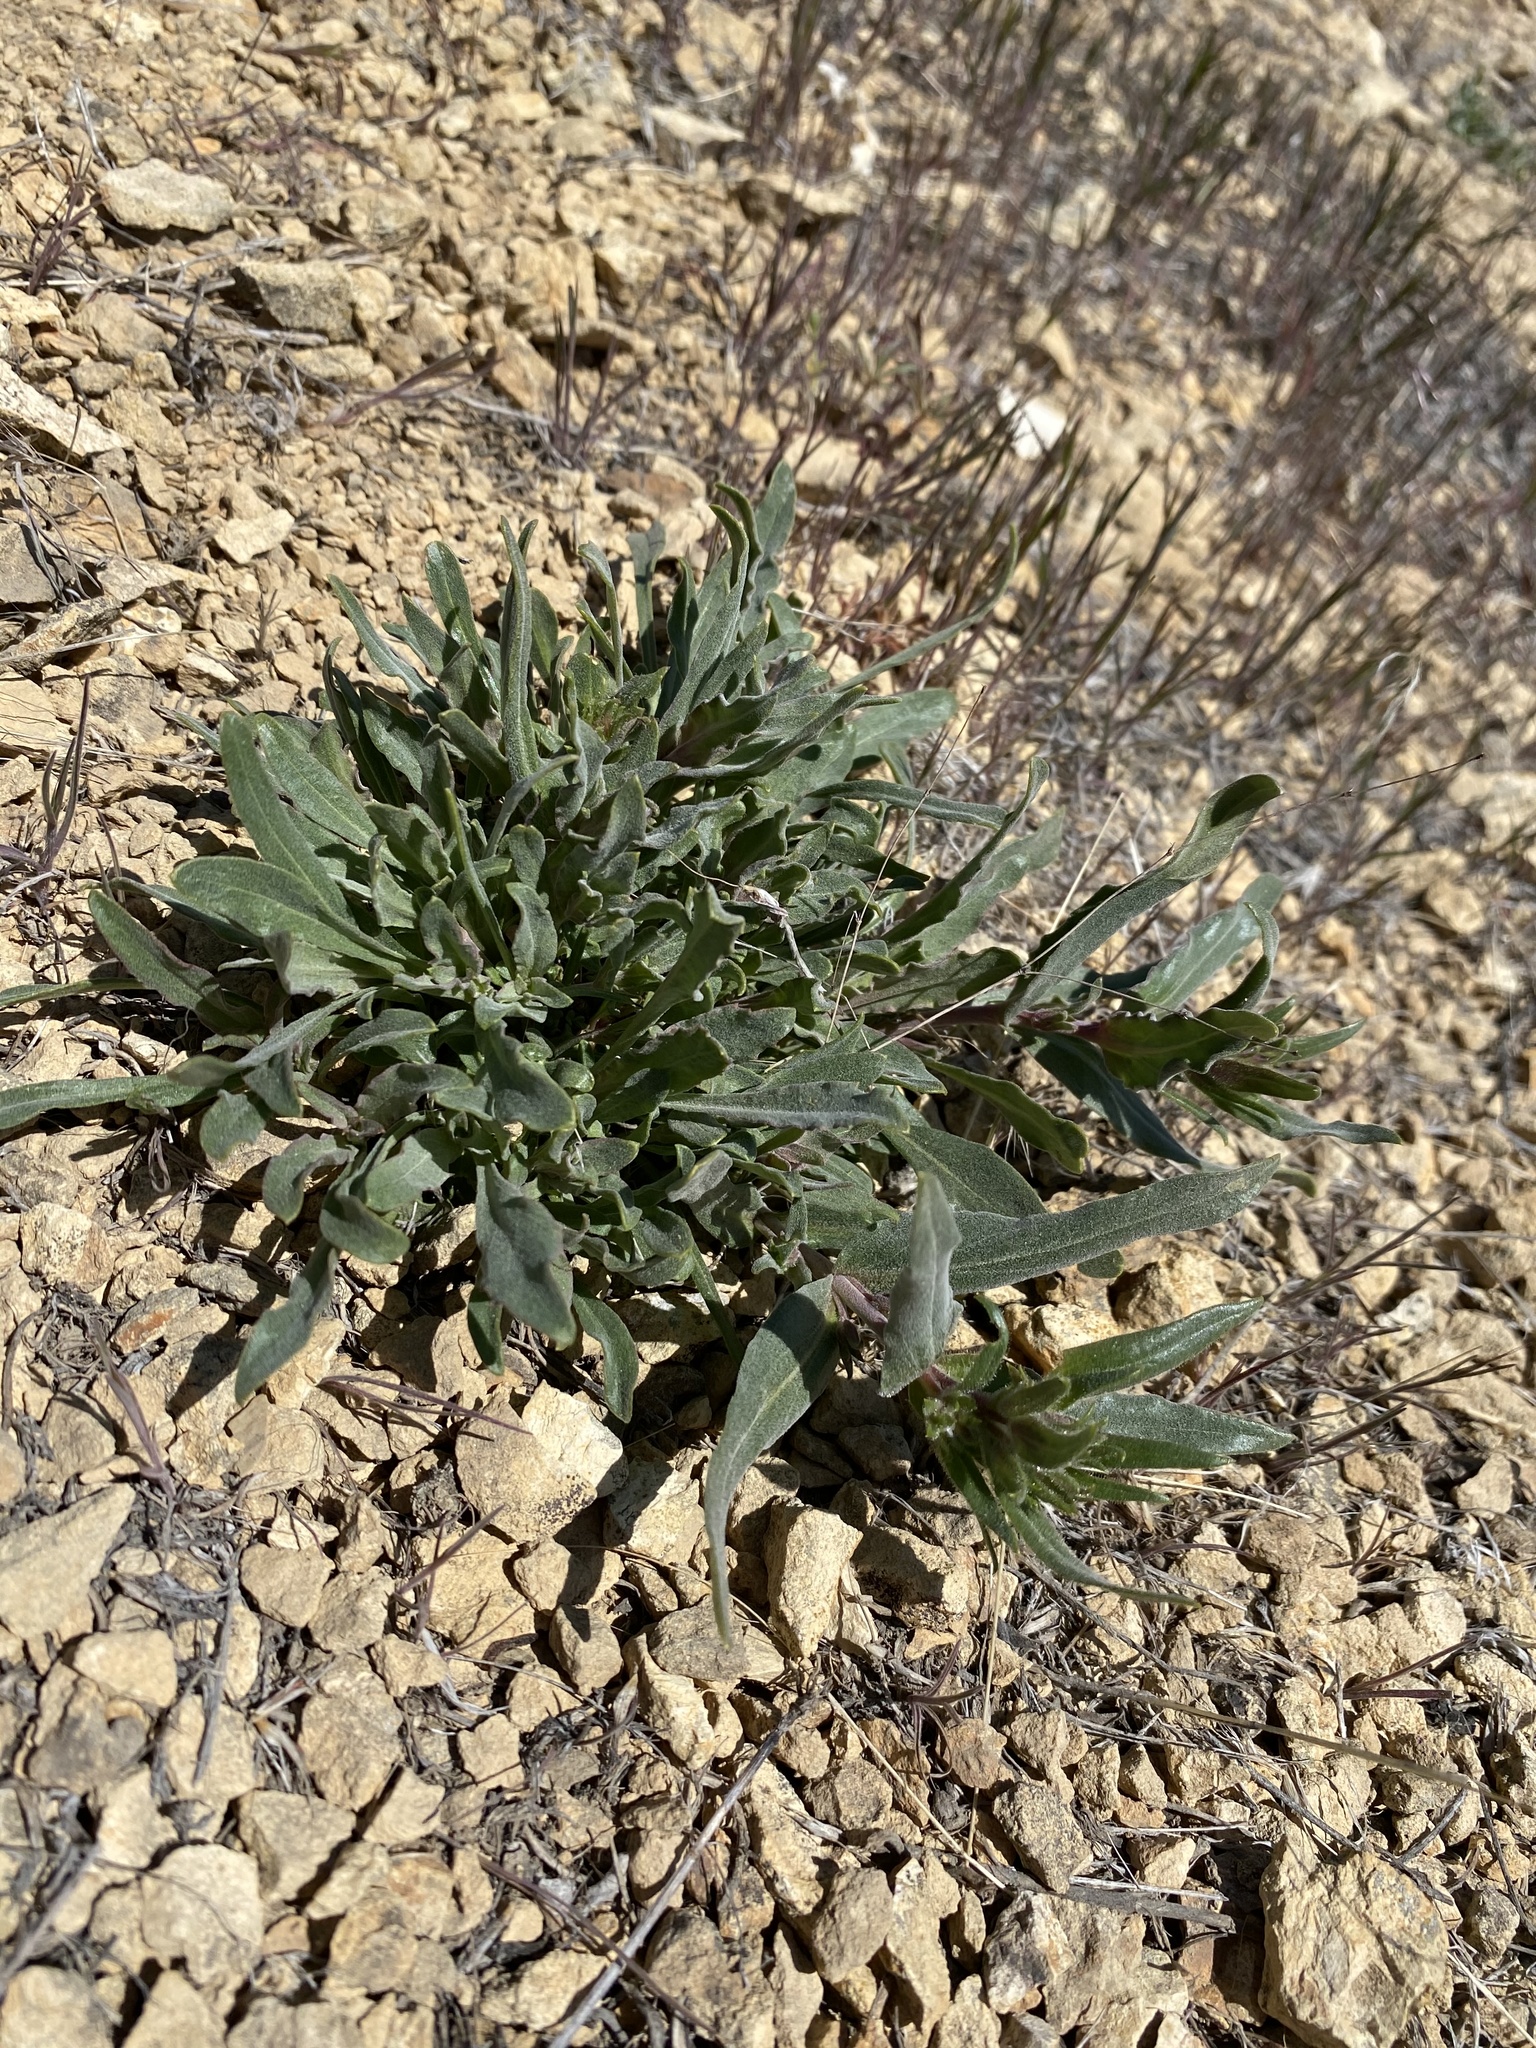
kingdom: Plantae
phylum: Tracheophyta
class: Magnoliopsida
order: Lamiales
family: Plantaginaceae
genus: Penstemon
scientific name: Penstemon miser
